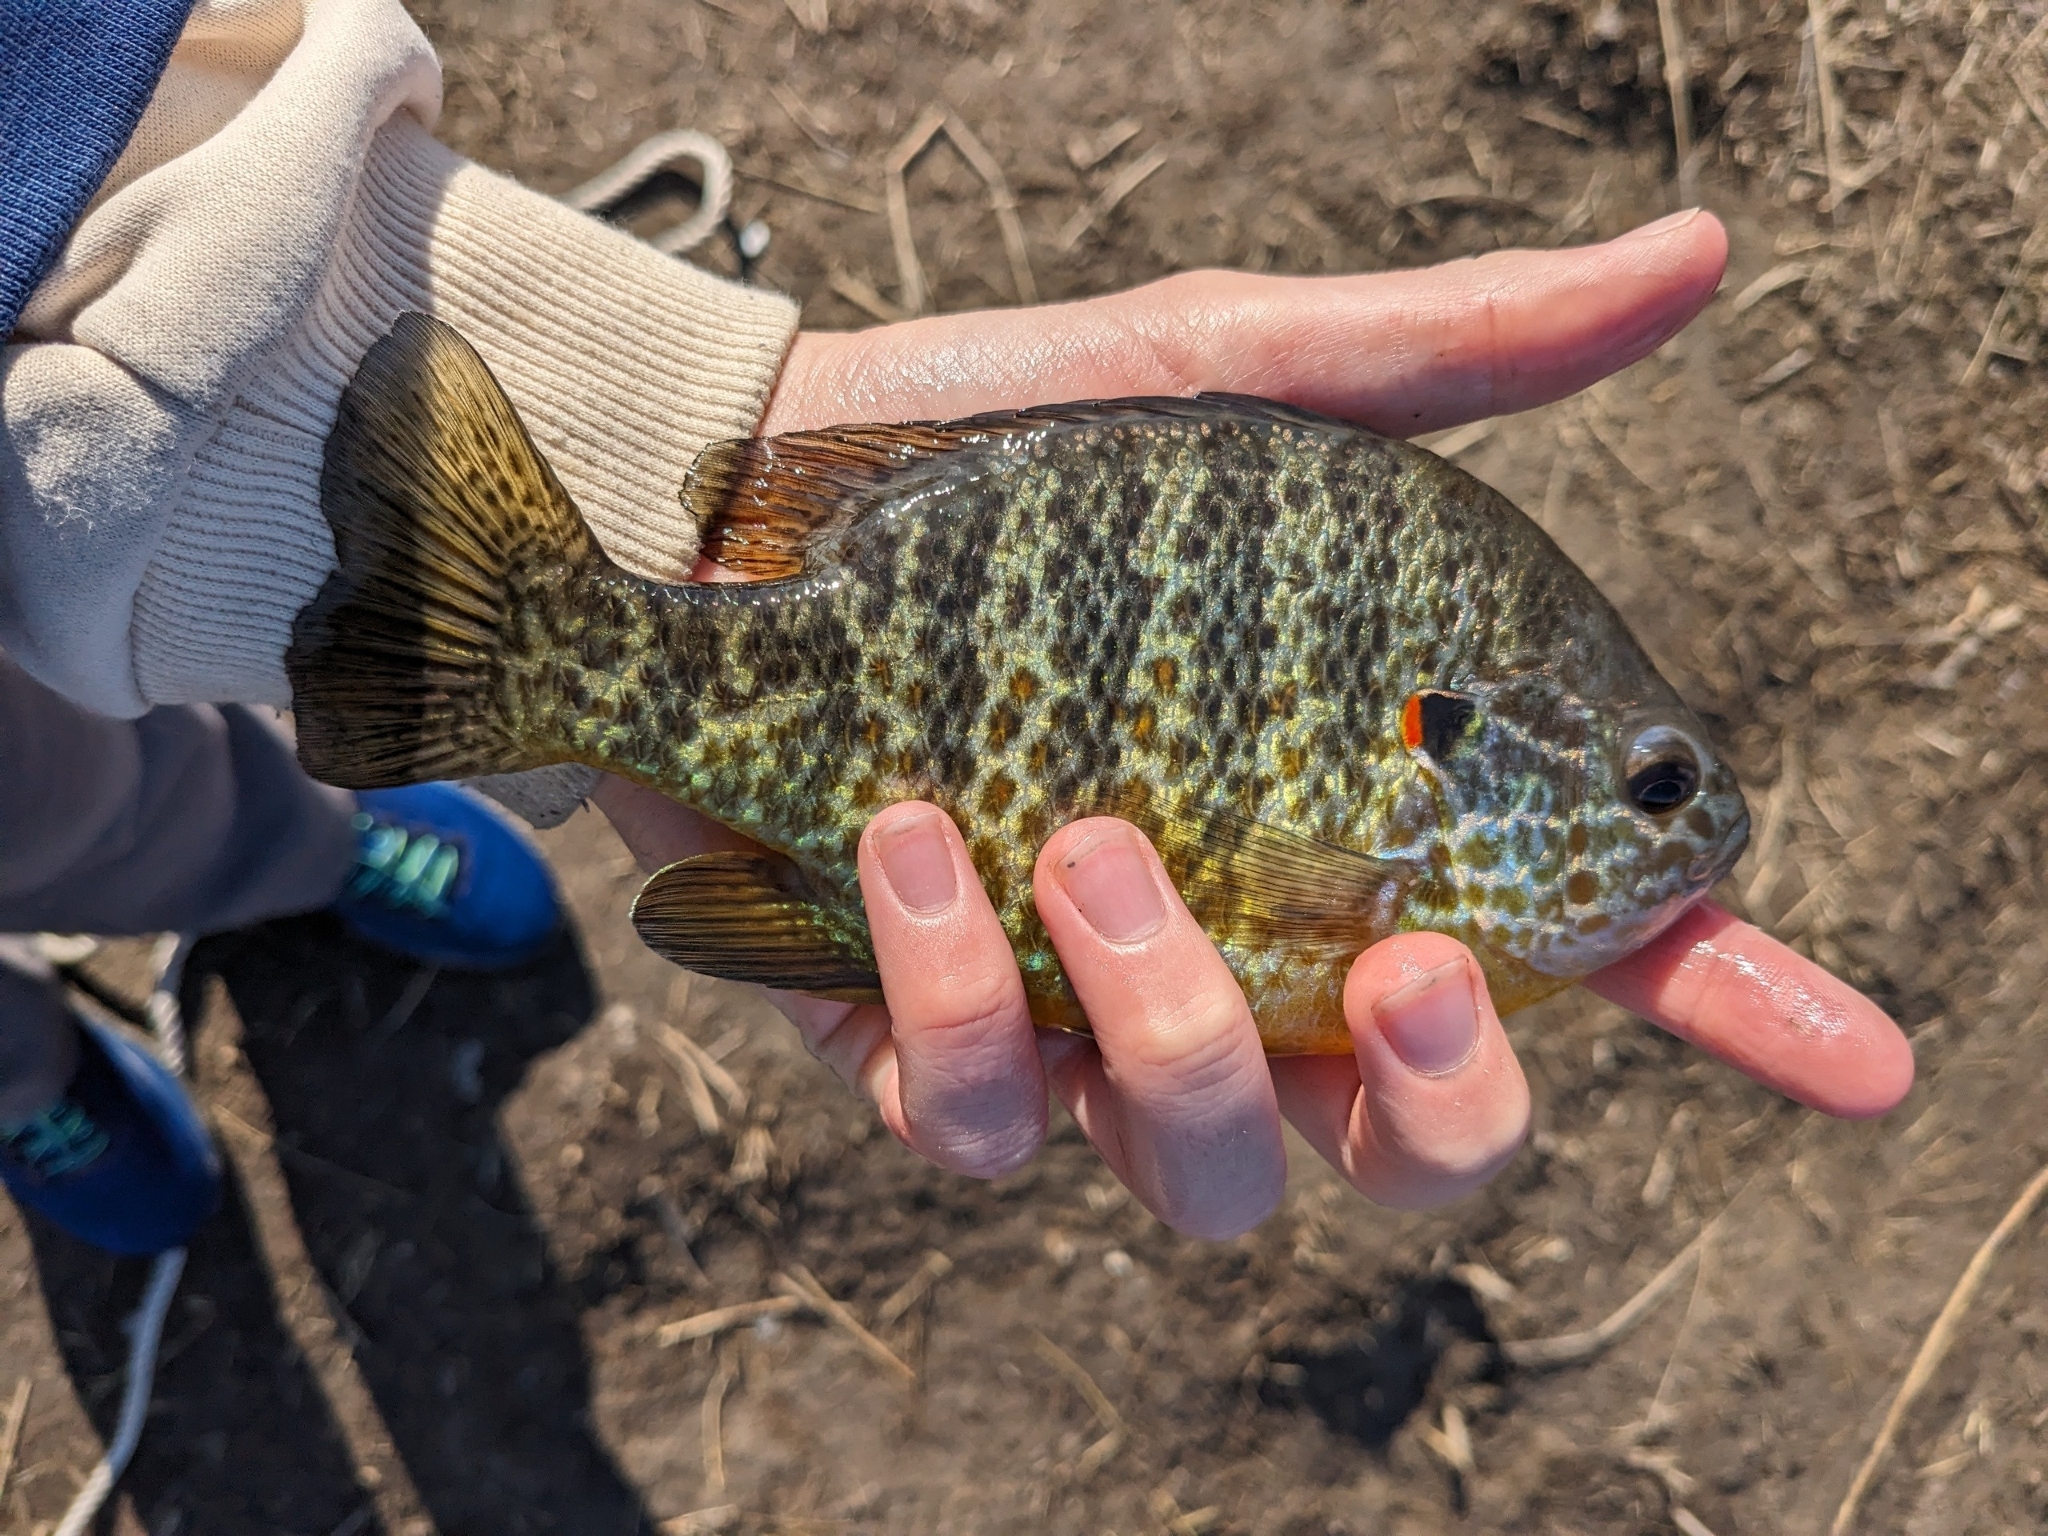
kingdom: Animalia
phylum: Chordata
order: Perciformes
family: Centrarchidae
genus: Lepomis
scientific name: Lepomis gibbosus
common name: Pumpkinseed
